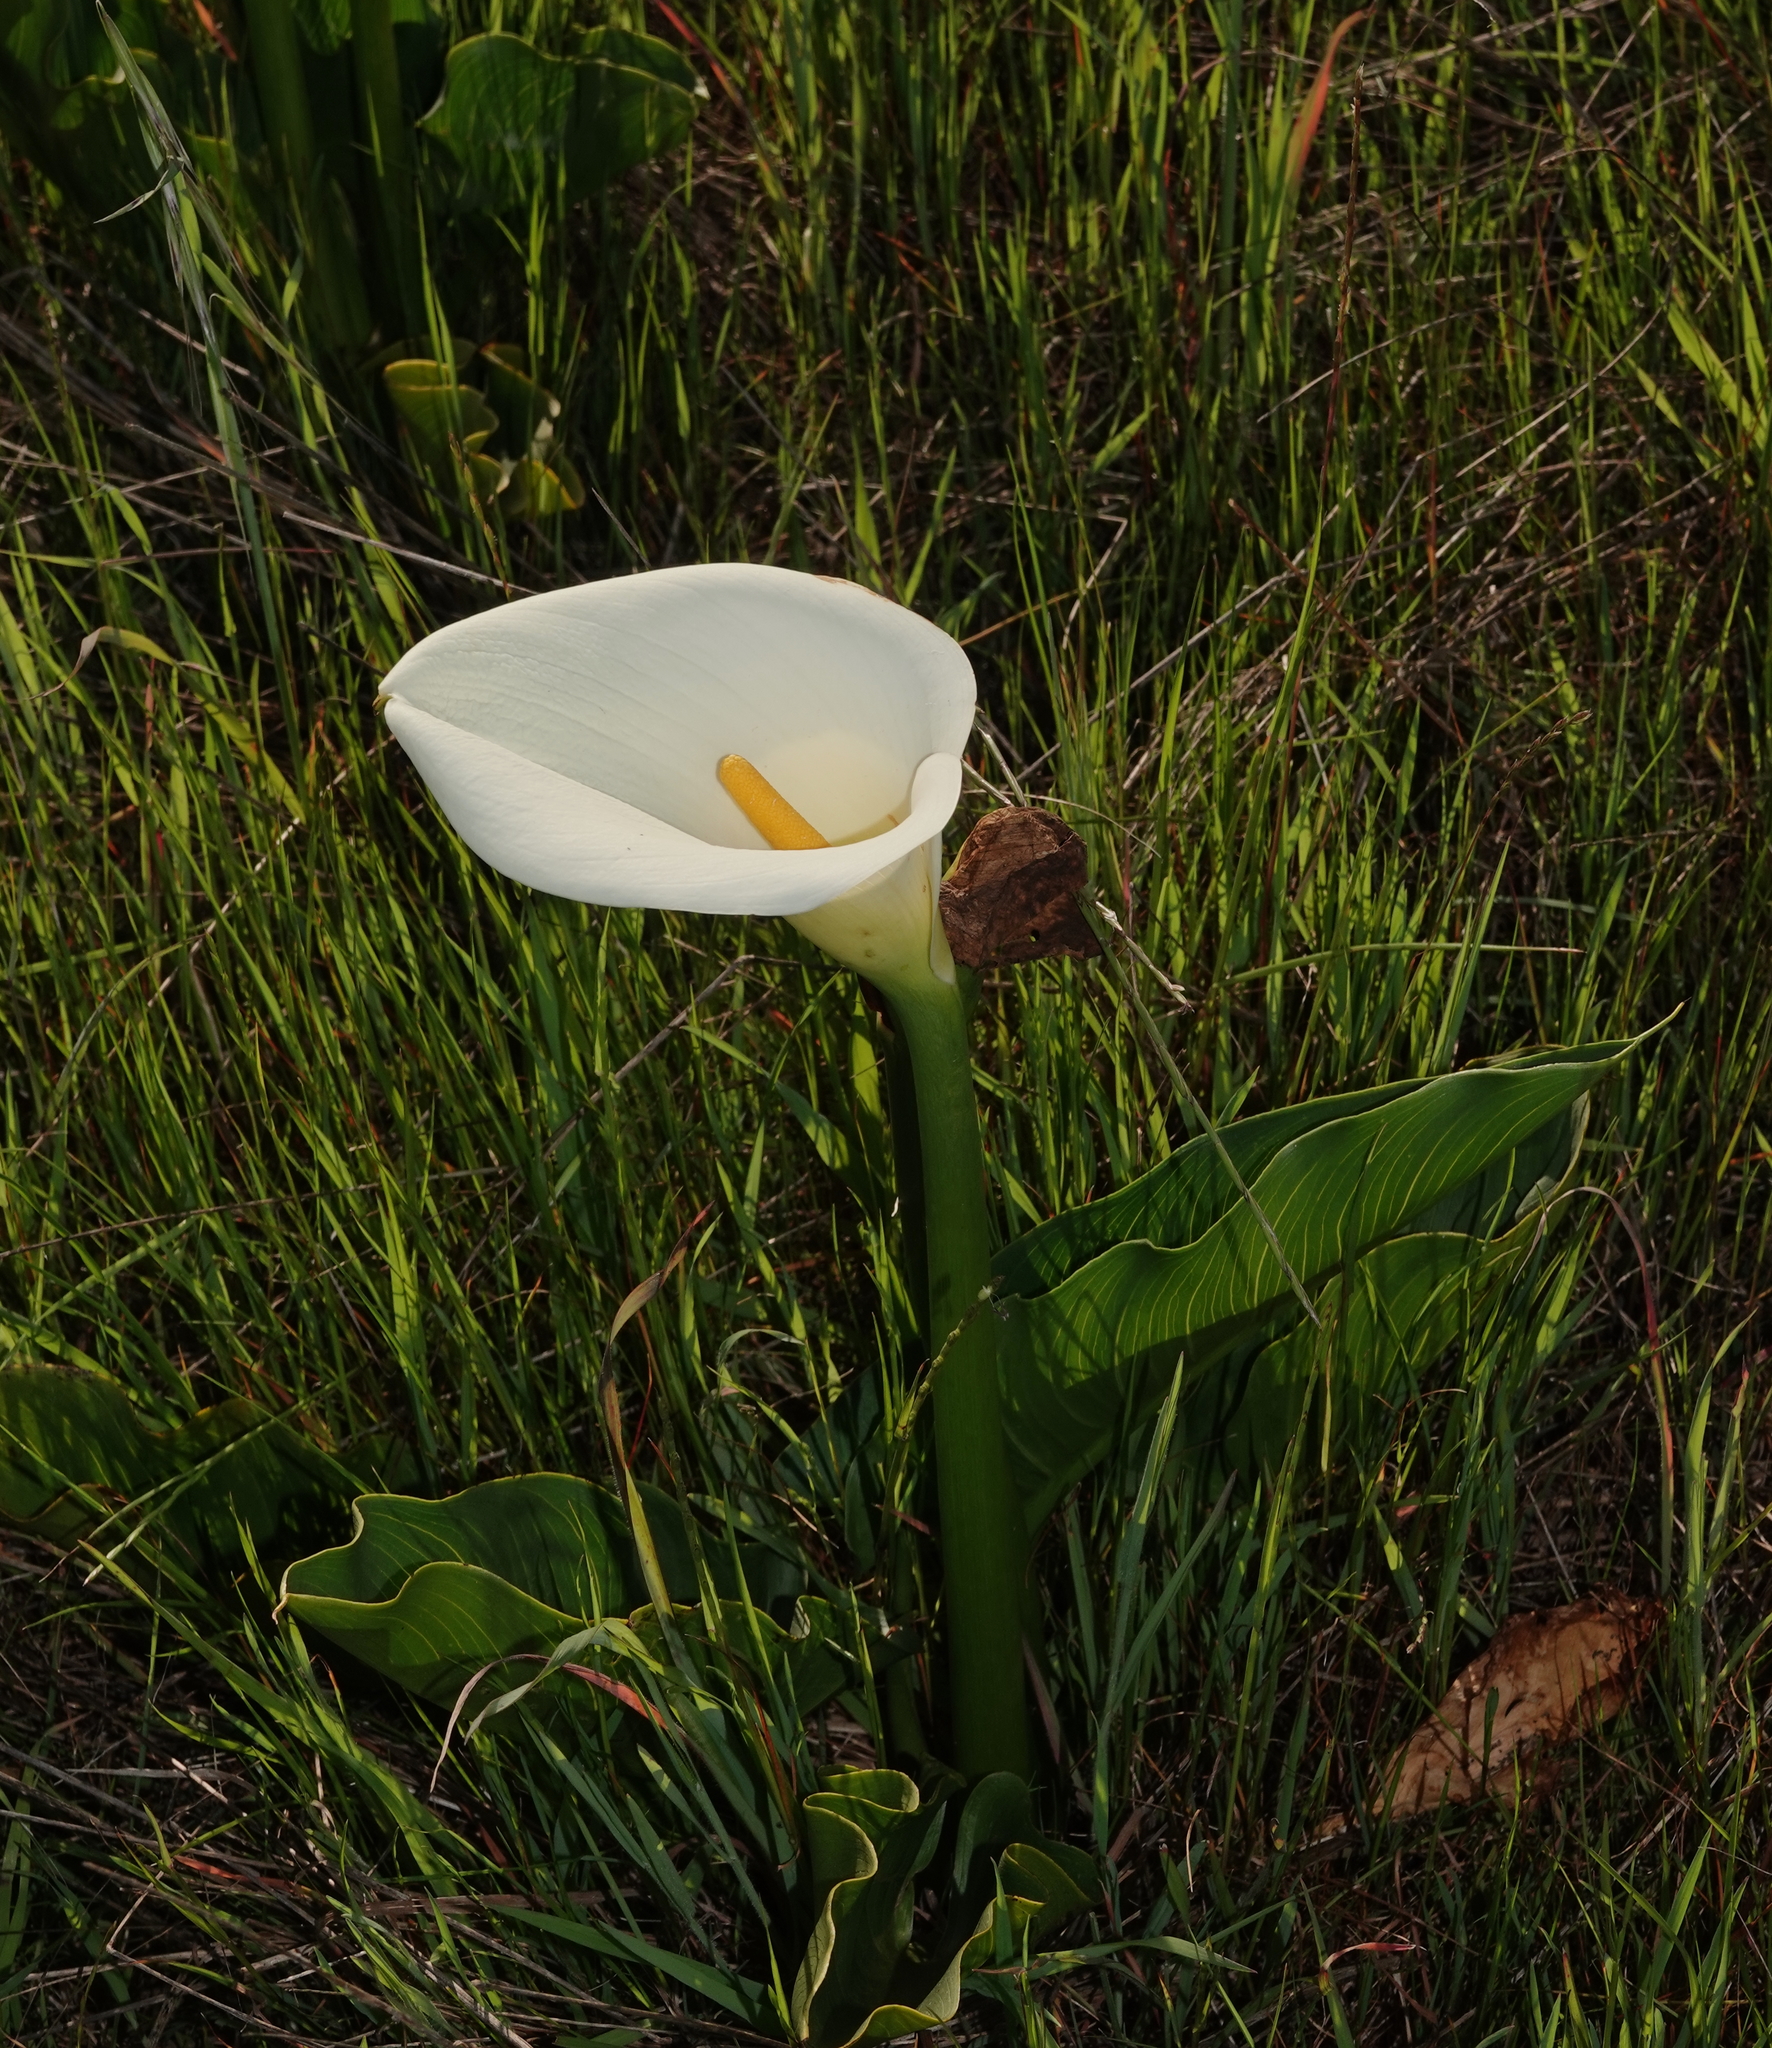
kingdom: Plantae
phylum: Tracheophyta
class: Liliopsida
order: Alismatales
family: Araceae
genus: Zantedeschia
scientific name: Zantedeschia aethiopica
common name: Altar-lily
